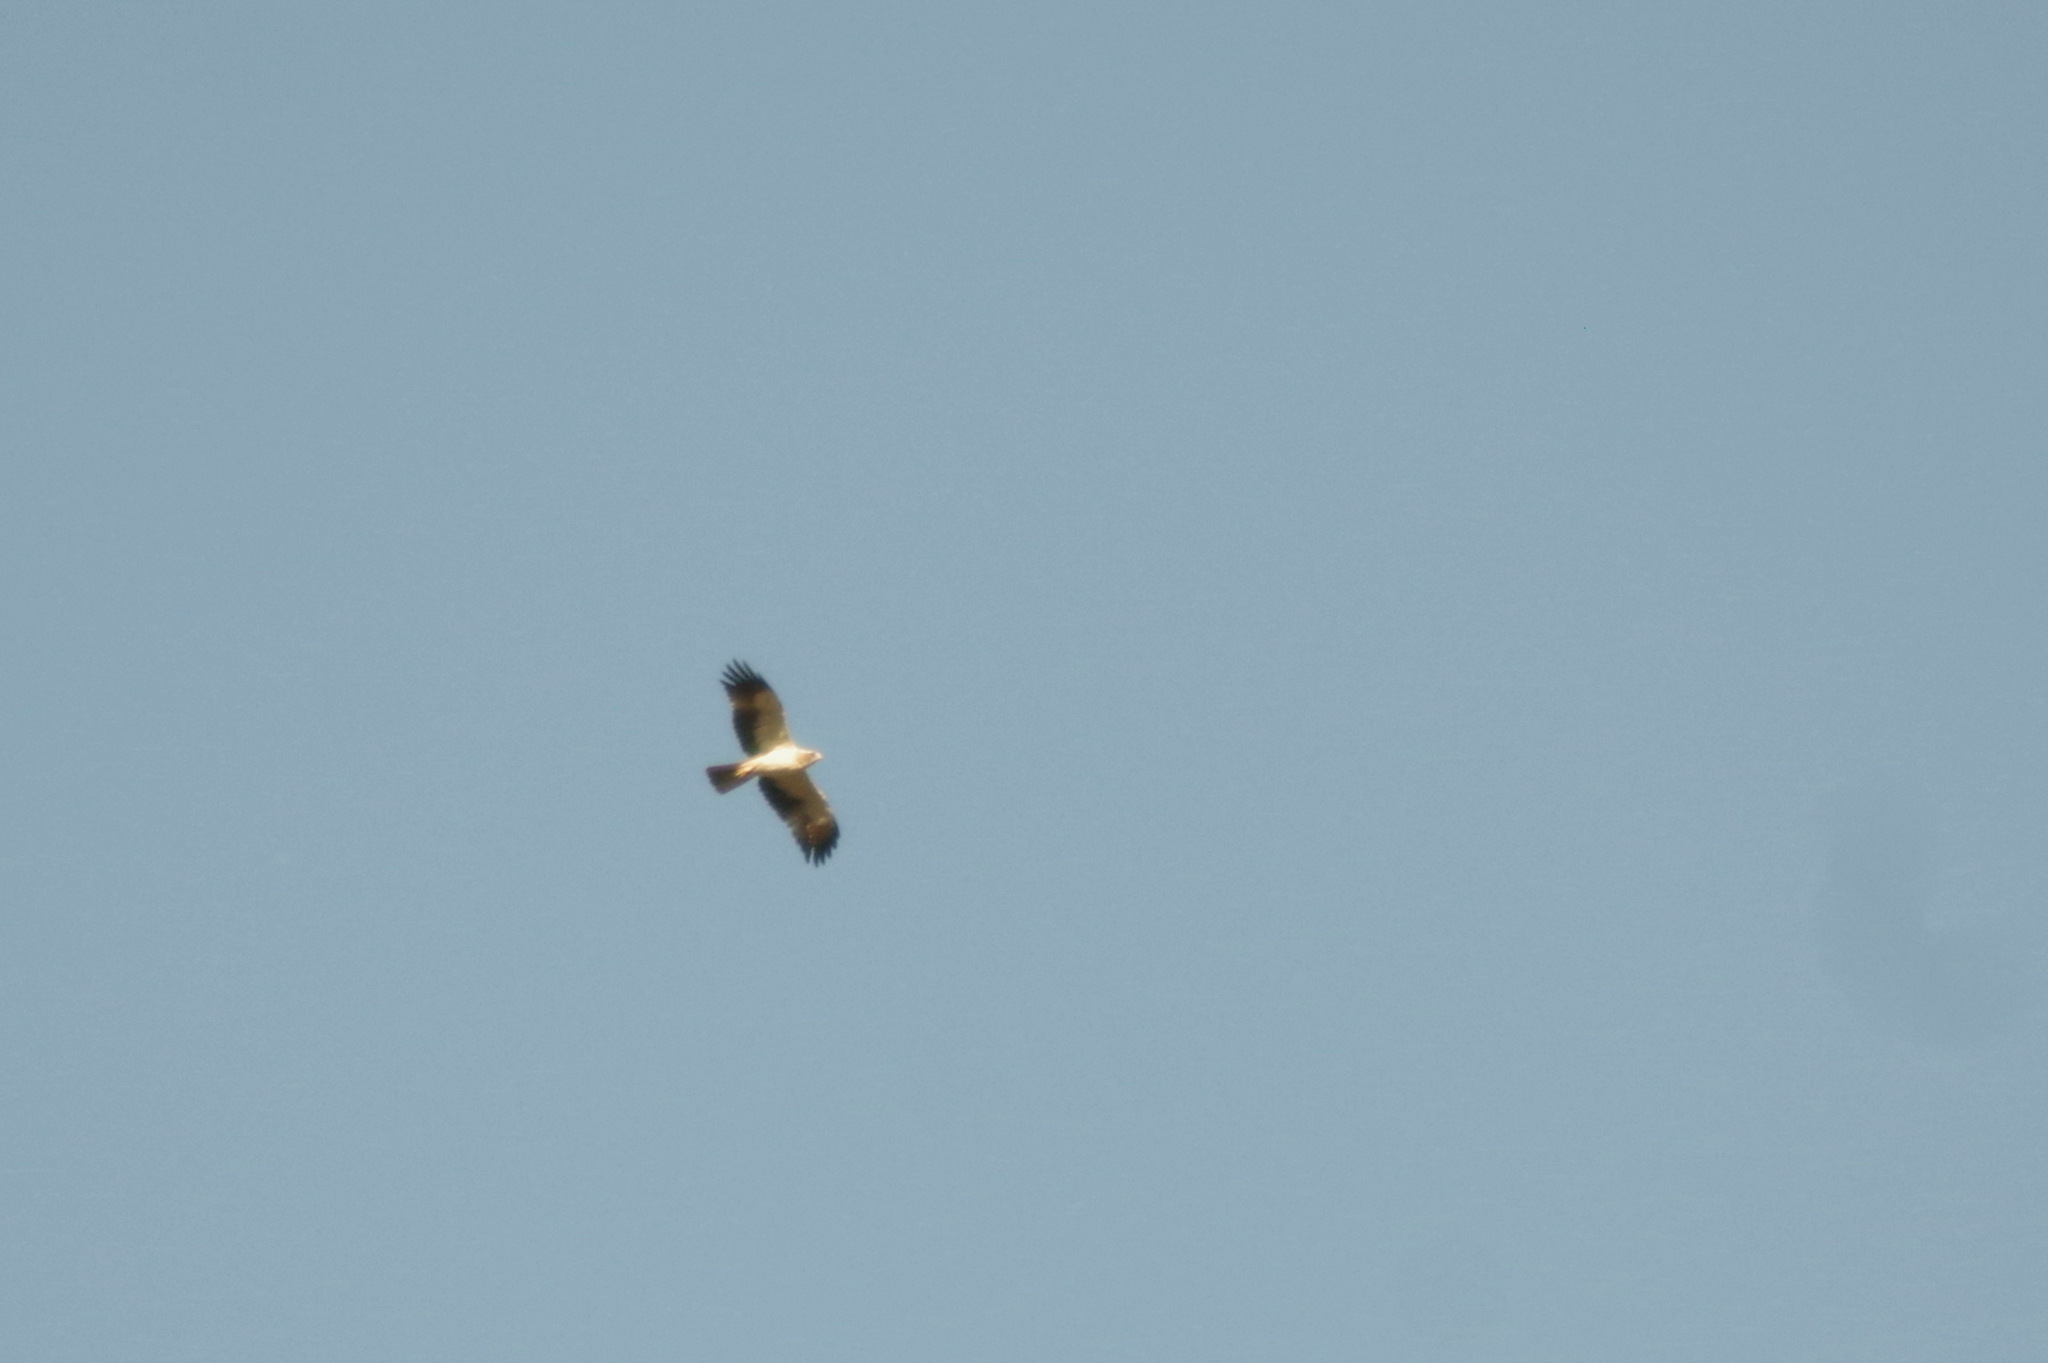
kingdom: Animalia
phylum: Chordata
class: Aves
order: Accipitriformes
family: Accipitridae
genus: Hieraaetus
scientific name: Hieraaetus pennatus
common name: Booted eagle
